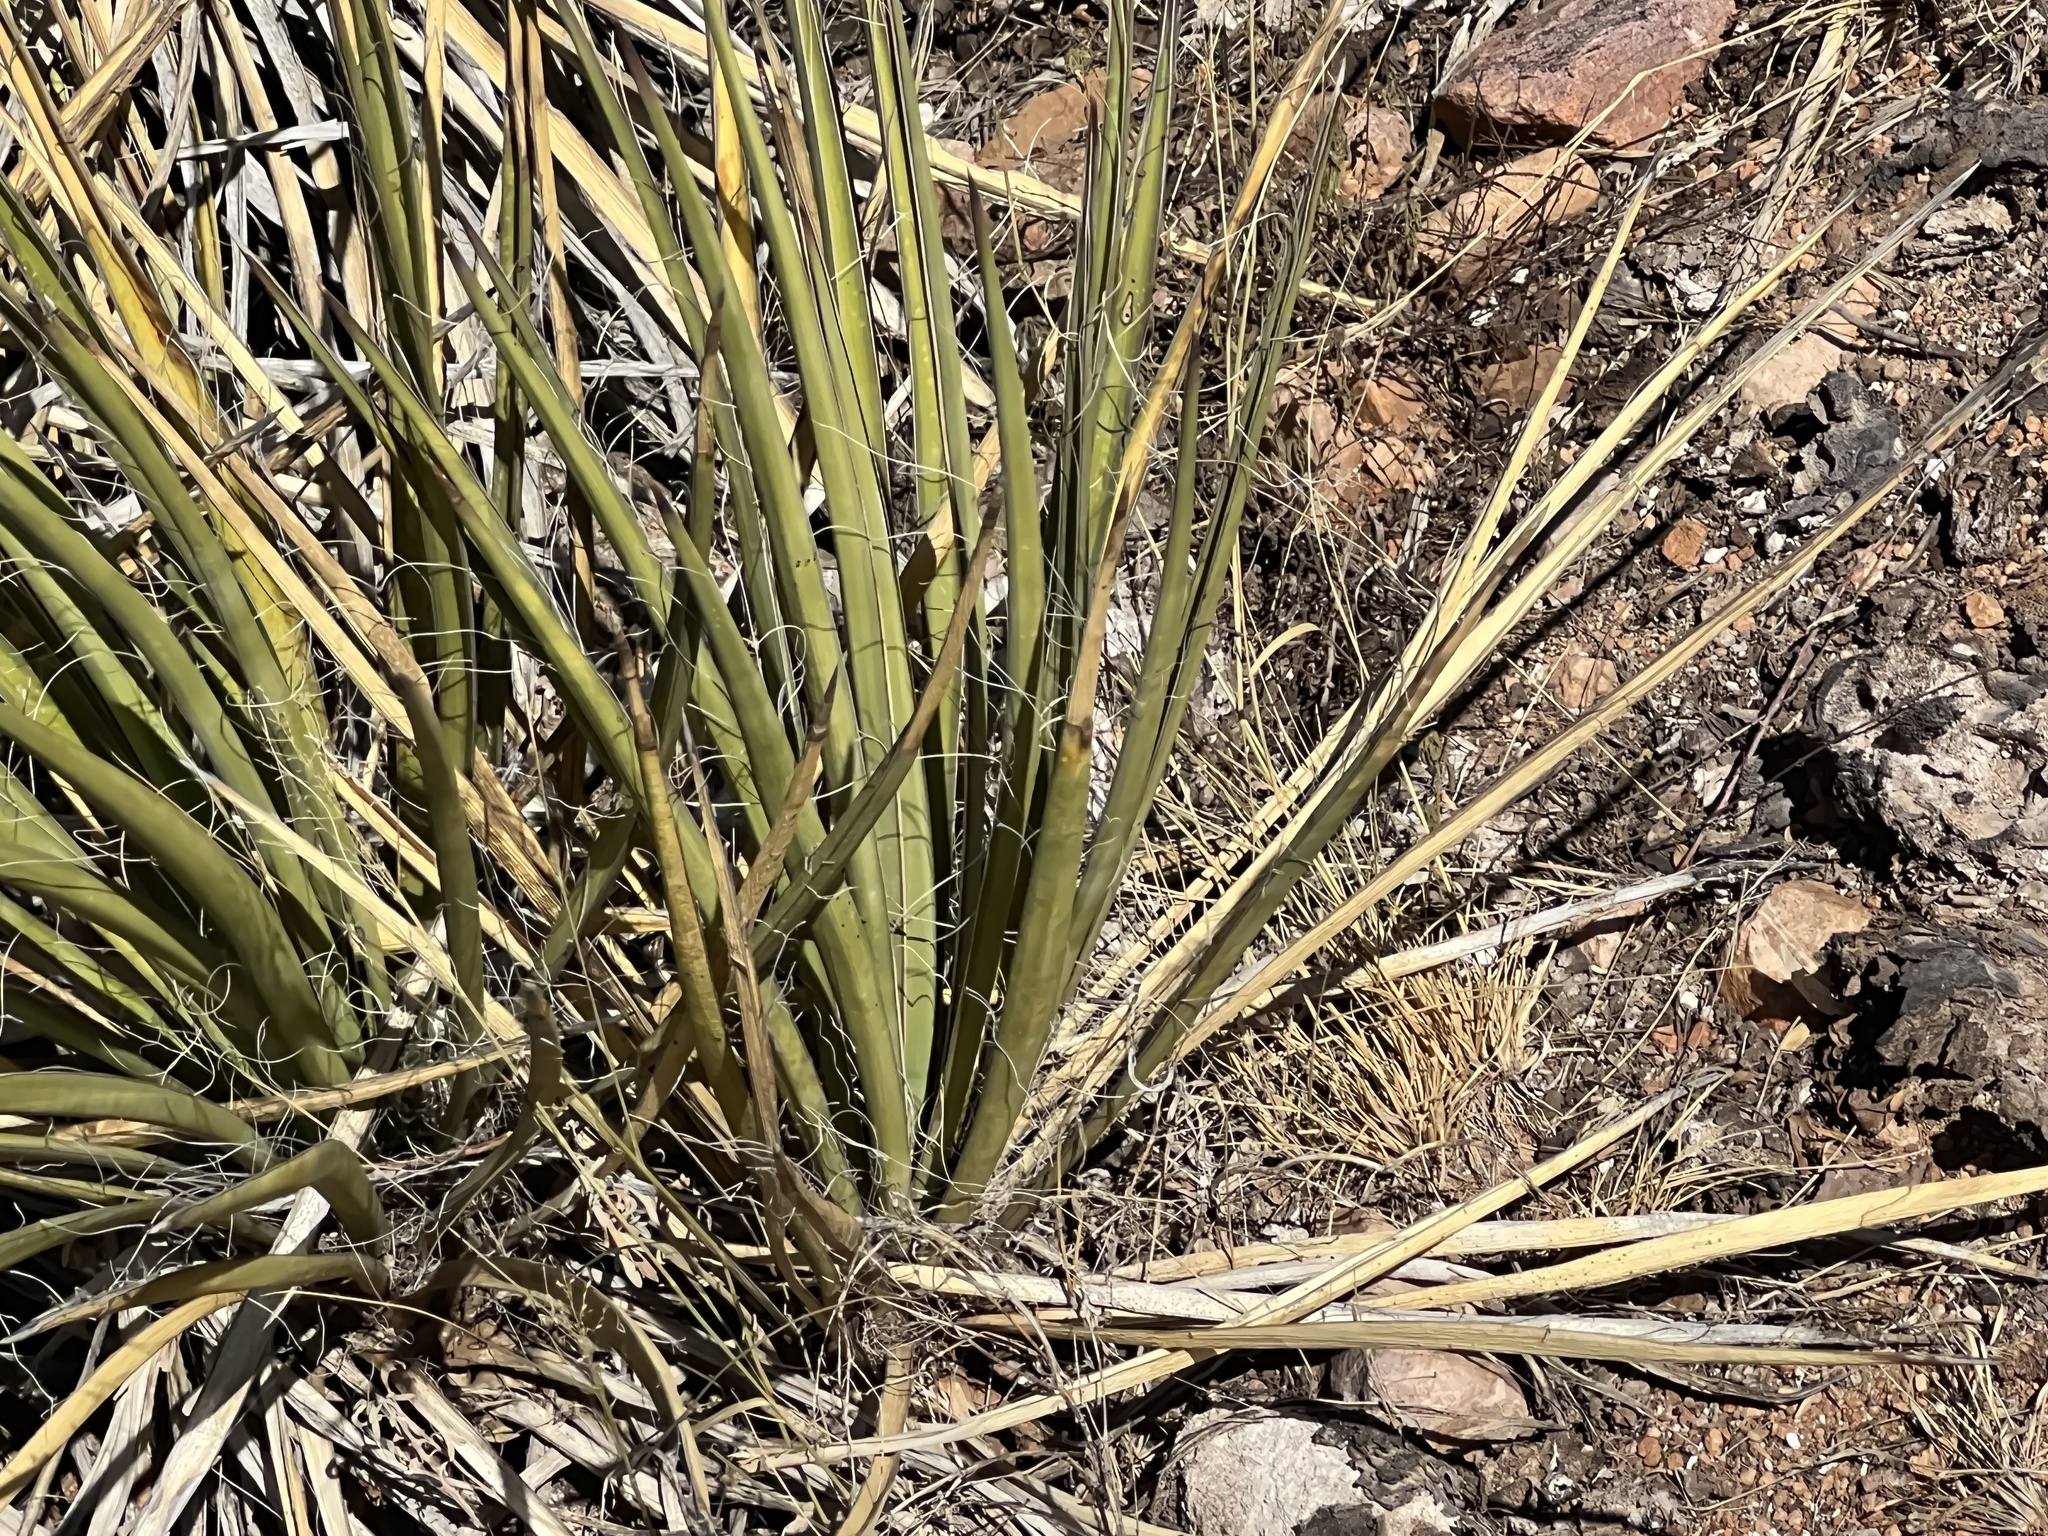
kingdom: Plantae
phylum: Tracheophyta
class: Liliopsida
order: Asparagales
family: Asparagaceae
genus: Yucca
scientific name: Yucca baccata
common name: Banana yucca
